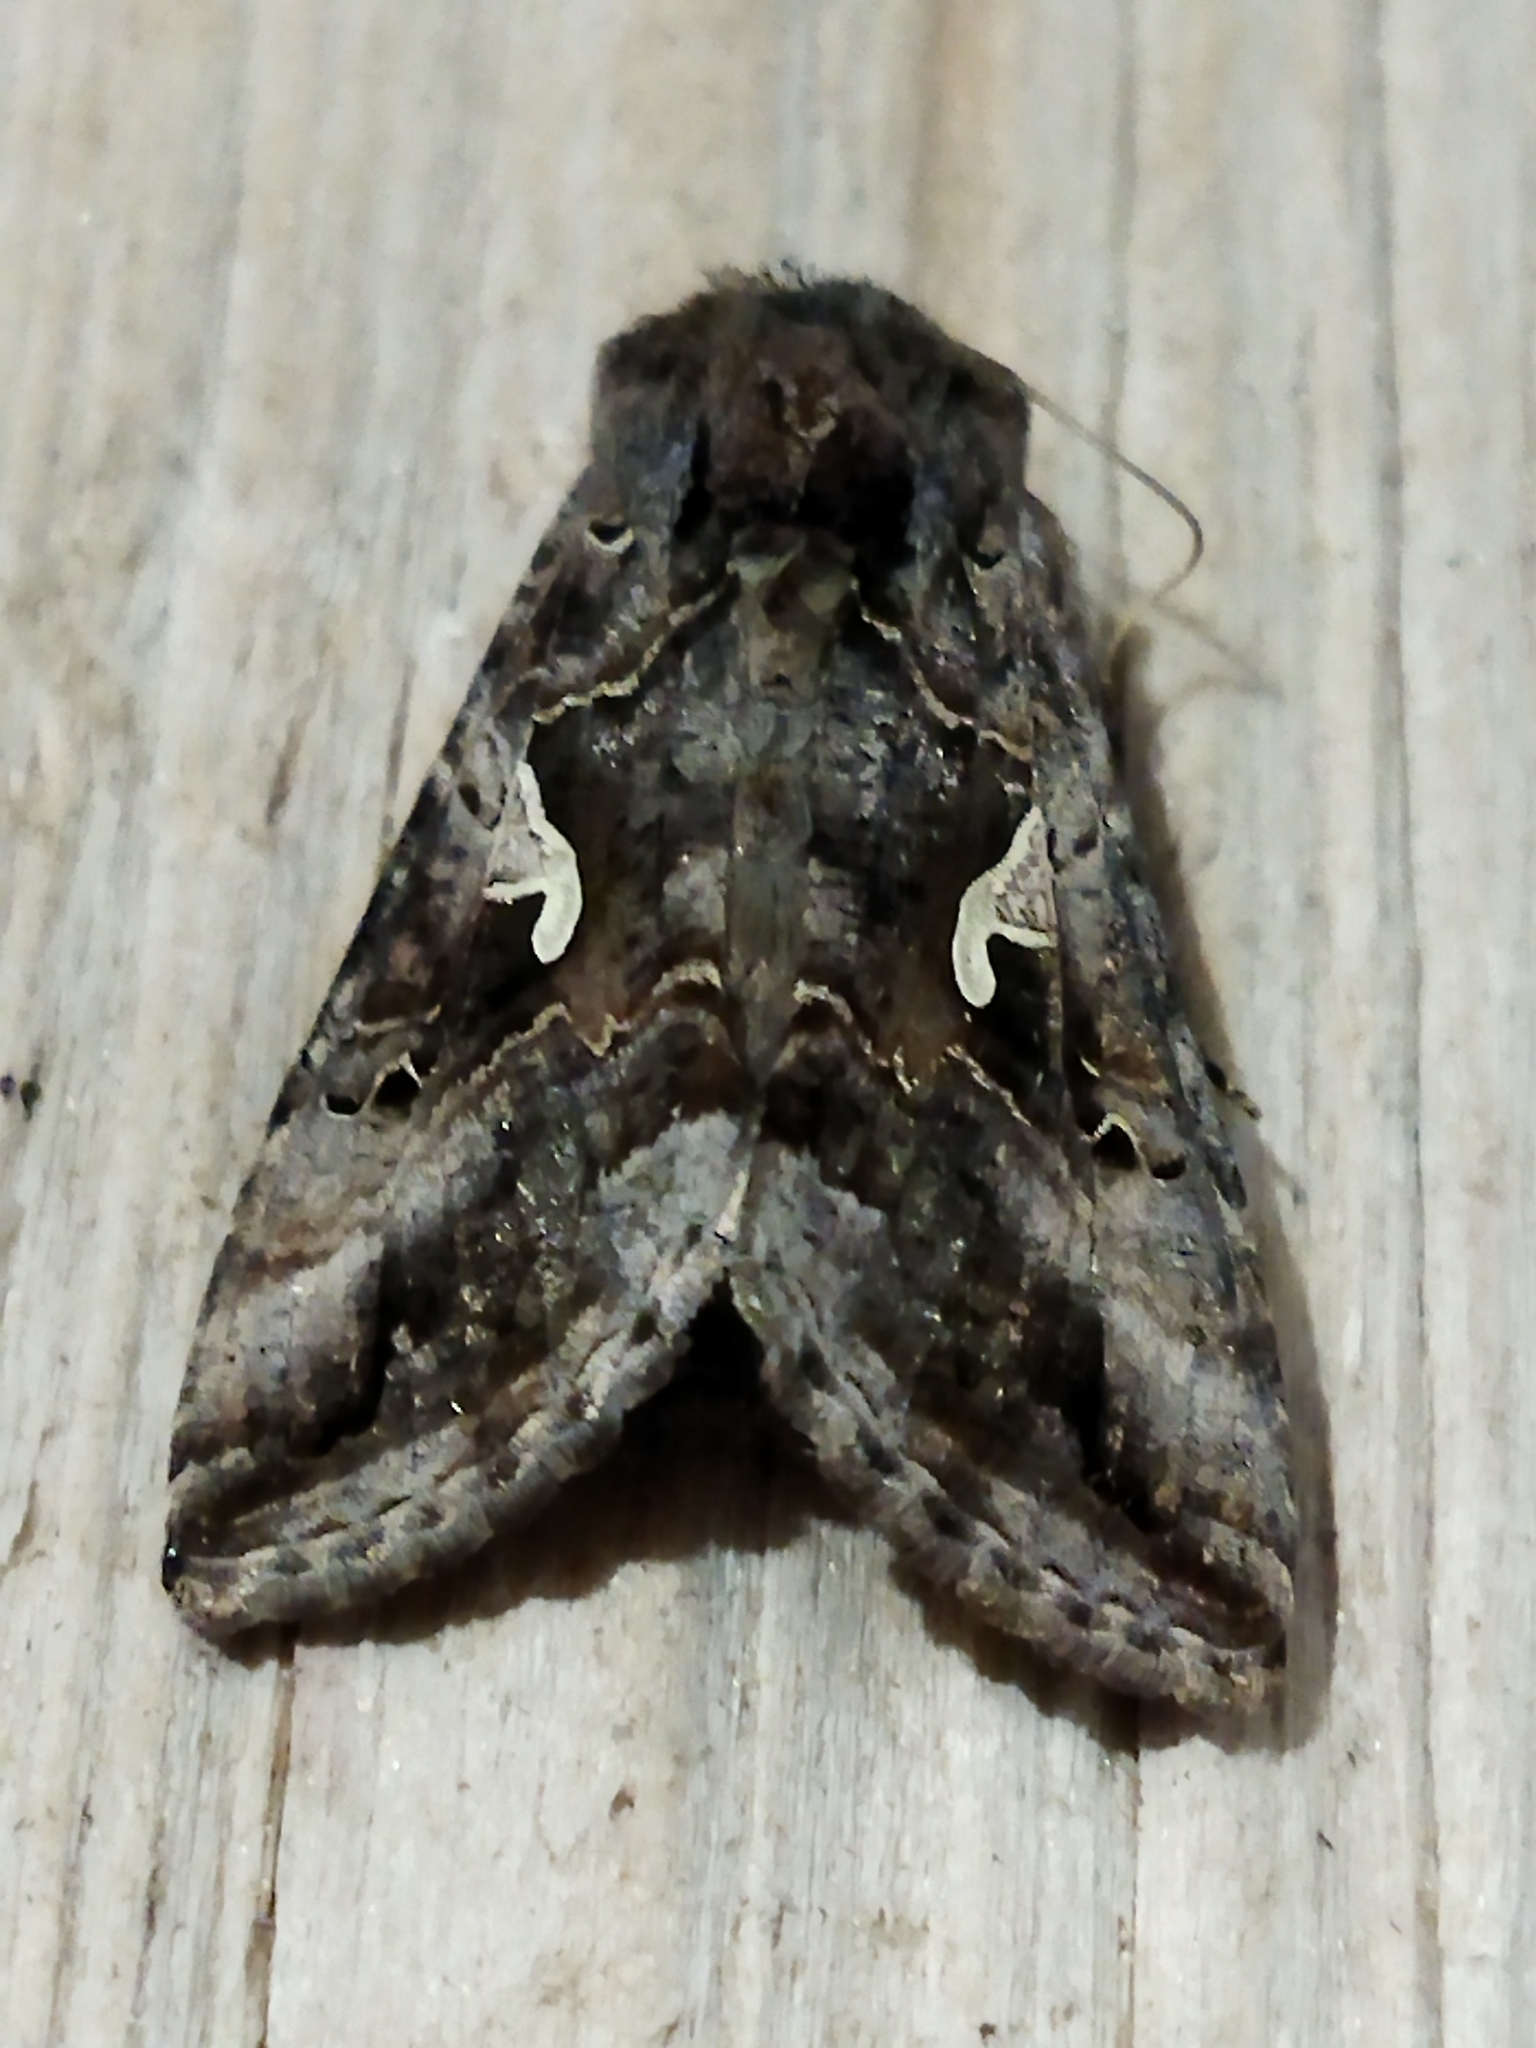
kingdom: Animalia
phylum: Arthropoda
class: Insecta
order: Lepidoptera
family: Noctuidae
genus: Autographa
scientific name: Autographa gamma
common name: Silver y
